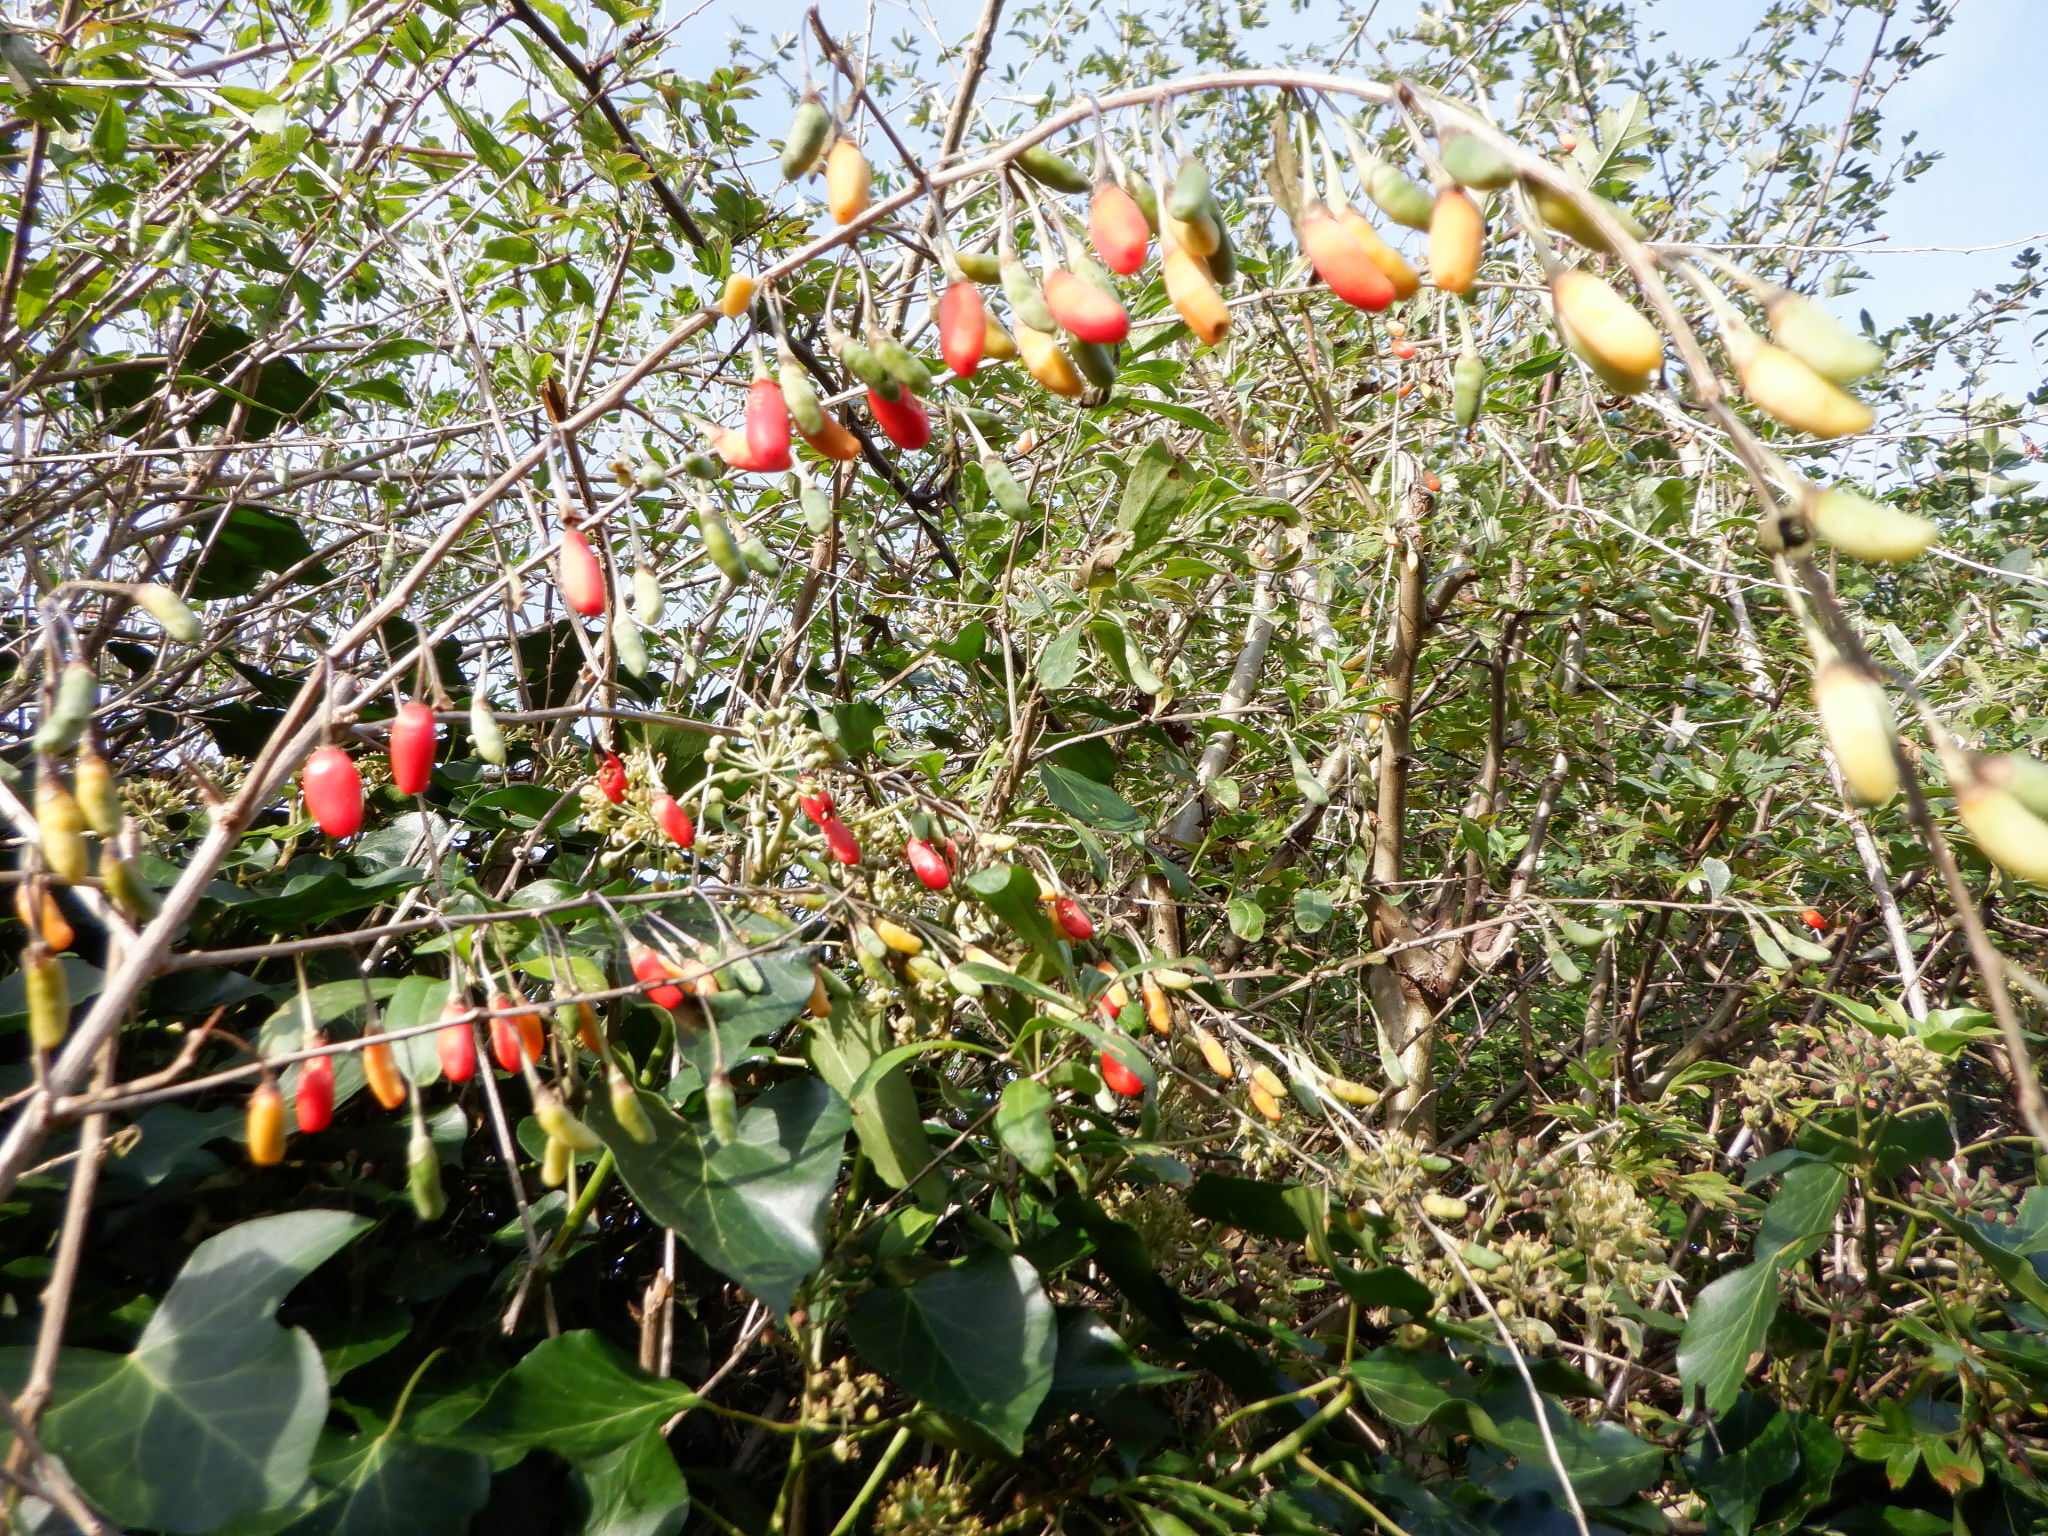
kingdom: Plantae
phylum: Tracheophyta
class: Magnoliopsida
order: Solanales
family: Solanaceae
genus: Lycium
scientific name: Lycium barbarum
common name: Duke of argyll's teaplant
